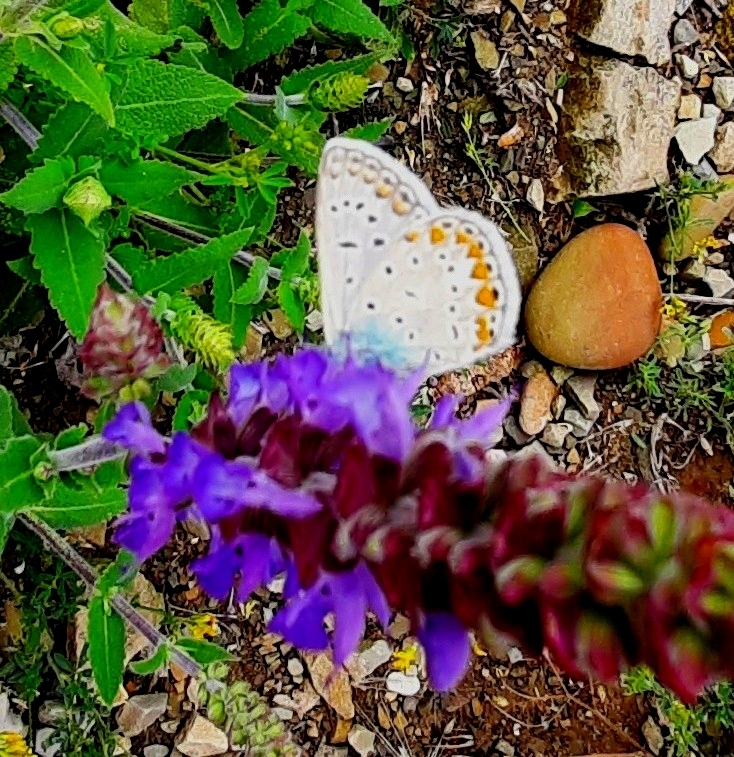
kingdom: Animalia
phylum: Arthropoda
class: Insecta
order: Lepidoptera
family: Lycaenidae
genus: Polyommatus
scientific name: Polyommatus icarus
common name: Common blue
